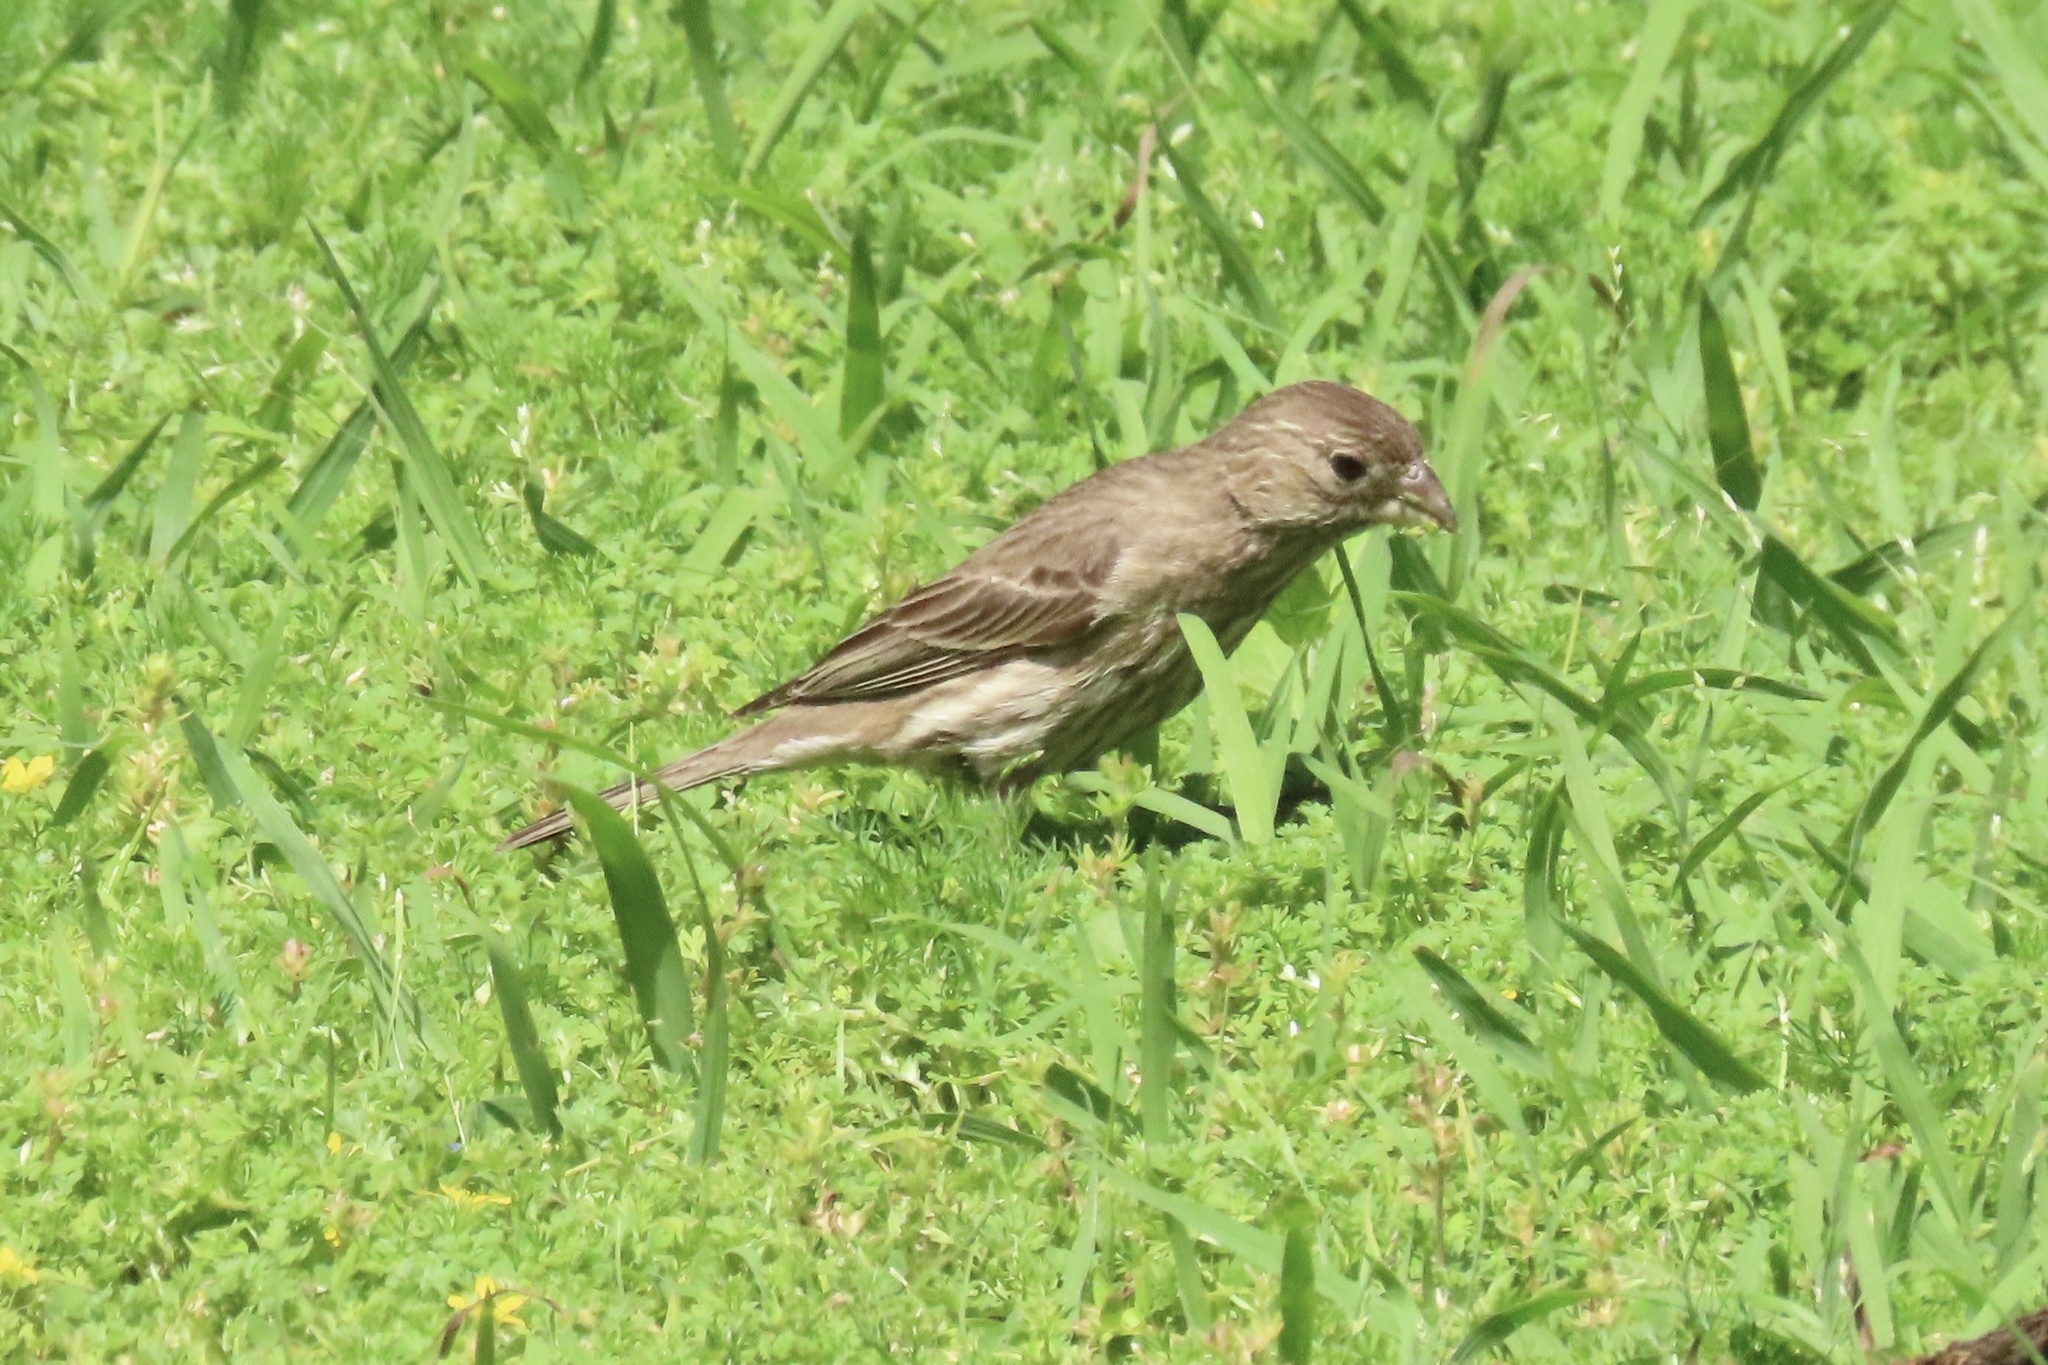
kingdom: Animalia
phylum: Chordata
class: Aves
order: Passeriformes
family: Fringillidae
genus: Haemorhous
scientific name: Haemorhous mexicanus
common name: House finch
